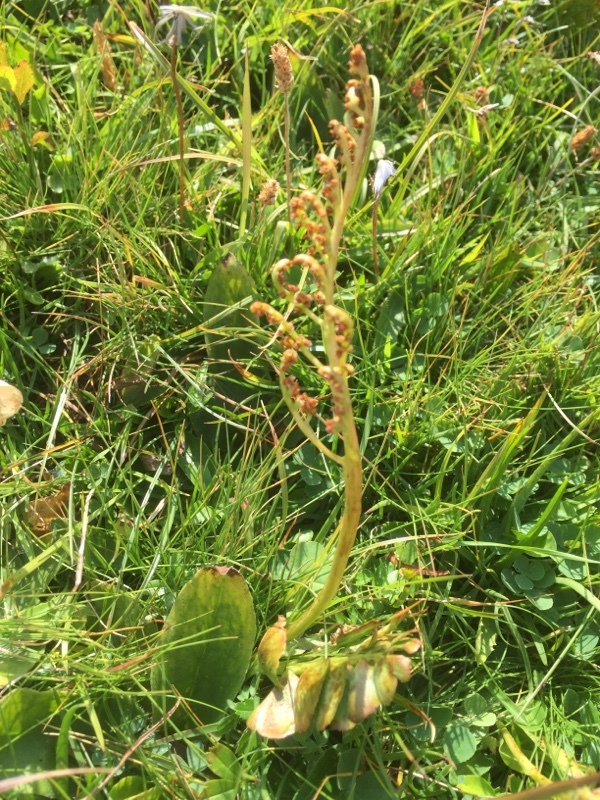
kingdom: Plantae
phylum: Tracheophyta
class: Polypodiopsida
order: Ophioglossales
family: Ophioglossaceae
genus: Botrychium
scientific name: Botrychium lunaria
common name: Moonwort
